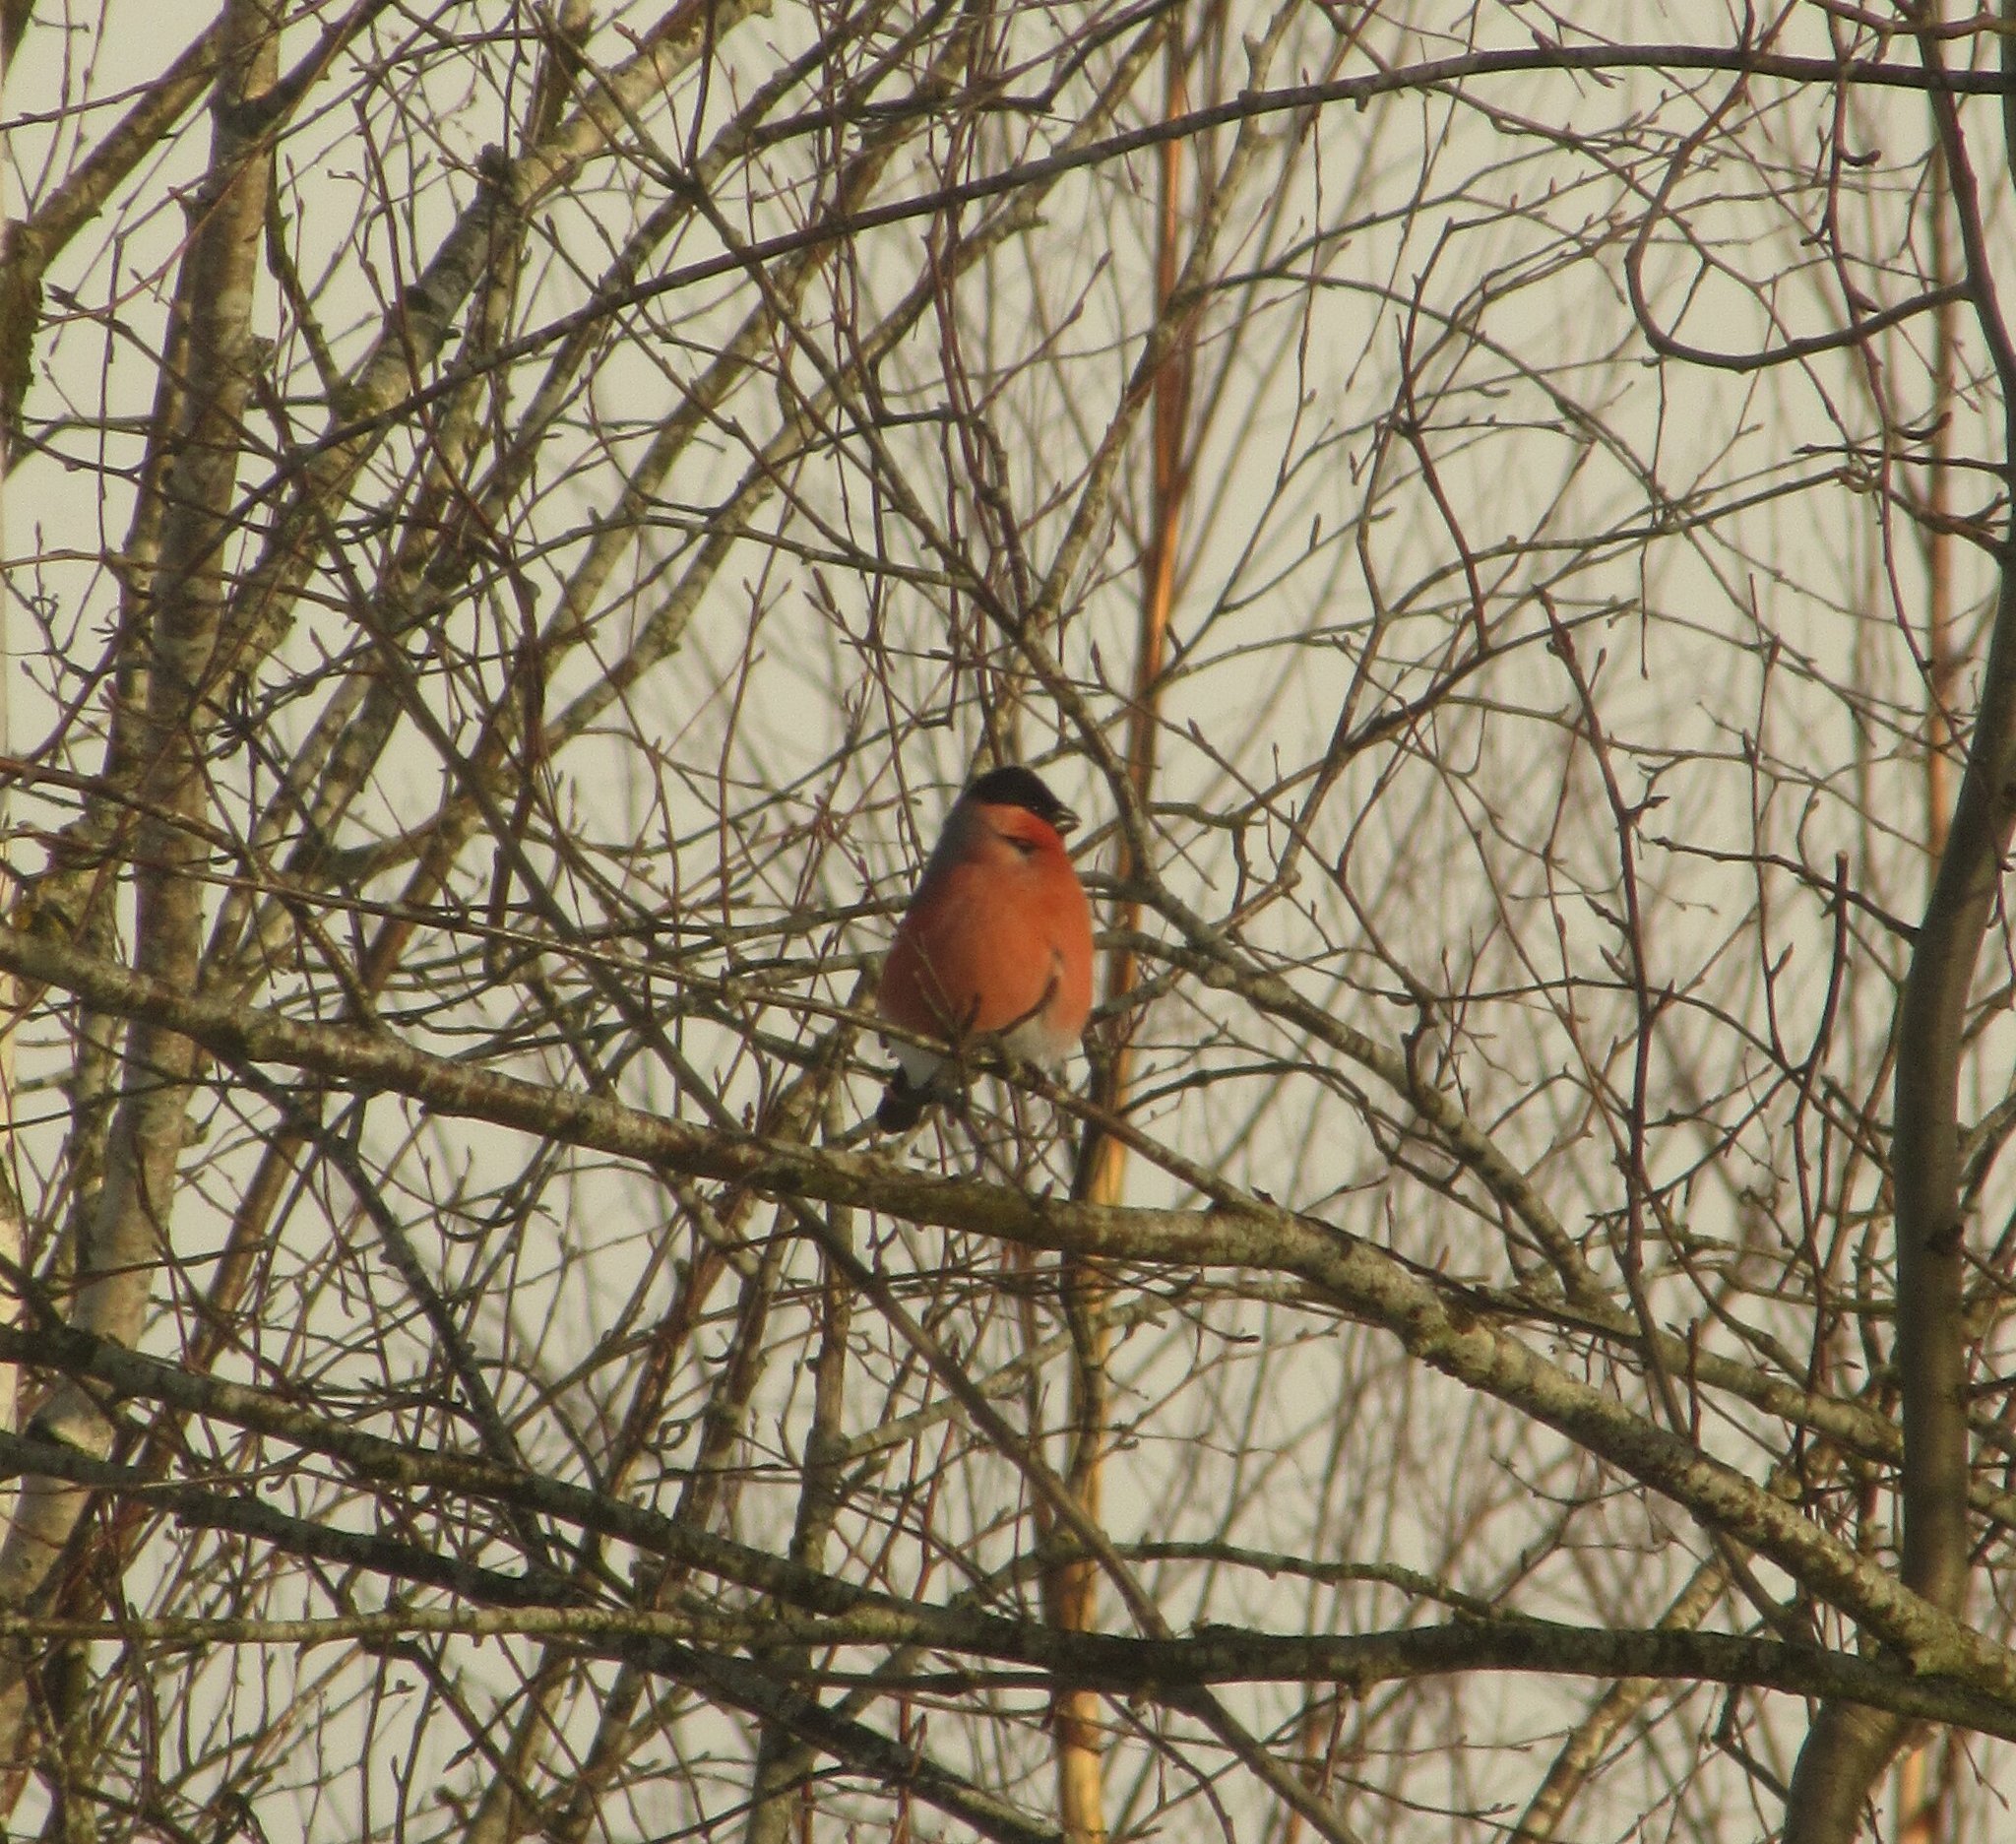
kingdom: Animalia
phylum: Chordata
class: Aves
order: Passeriformes
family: Fringillidae
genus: Pyrrhula
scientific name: Pyrrhula pyrrhula
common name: Eurasian bullfinch
